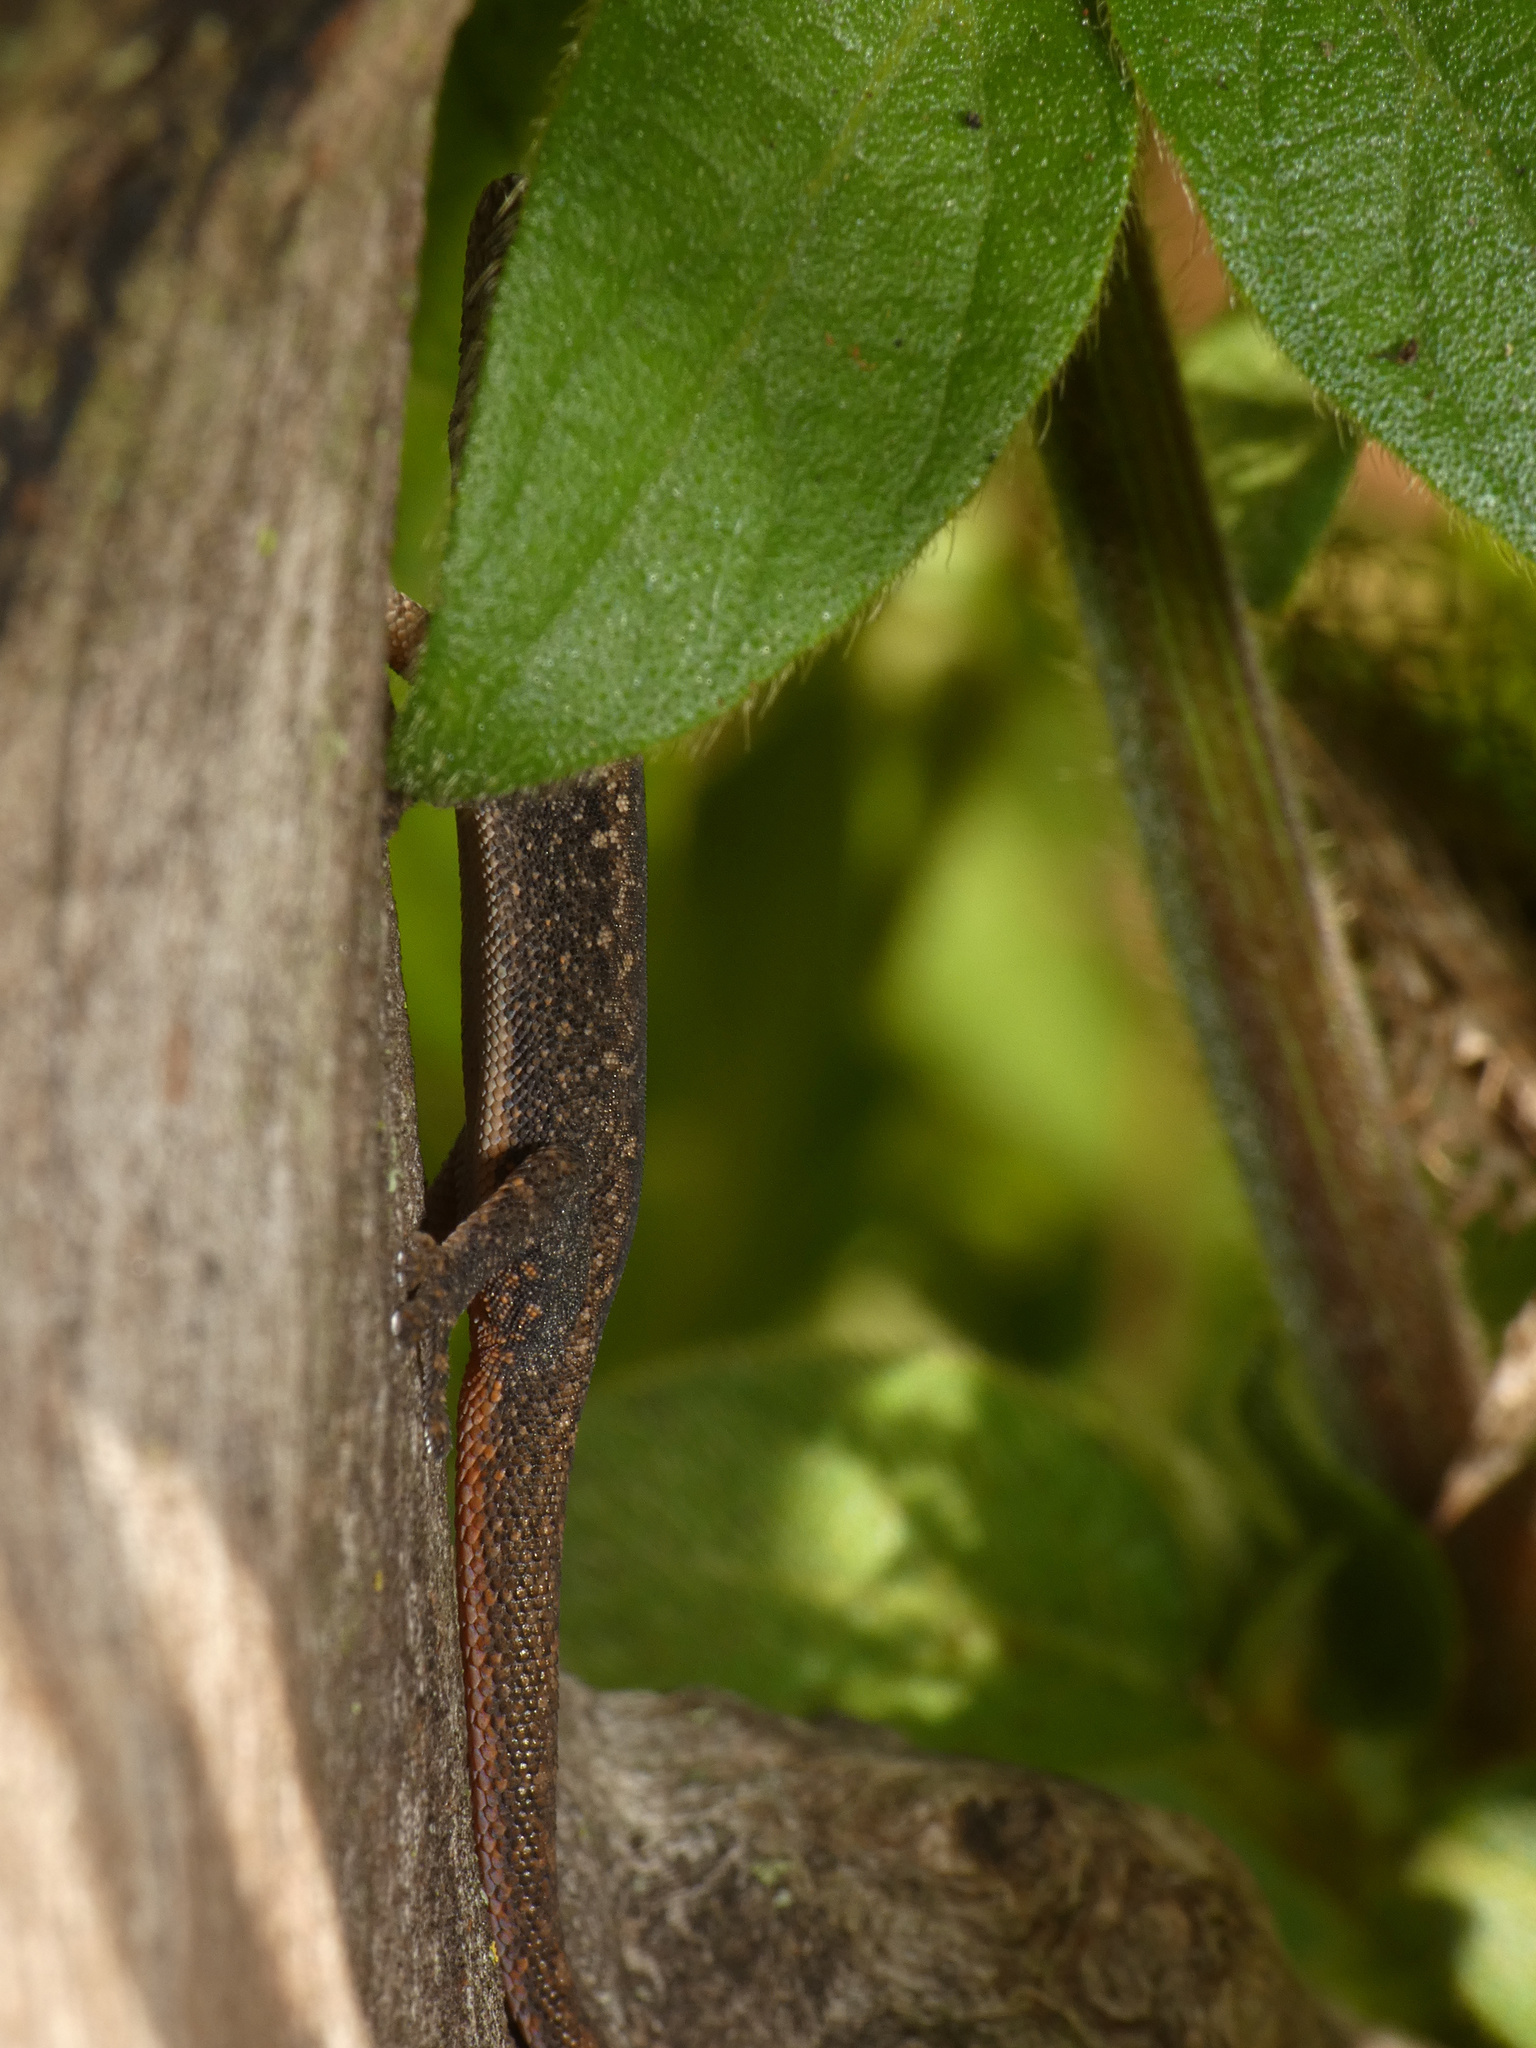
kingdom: Animalia
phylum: Chordata
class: Squamata
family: Gekkonidae
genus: Lygodactylus
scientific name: Lygodactylus capensis
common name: Cape dwarf gecko
